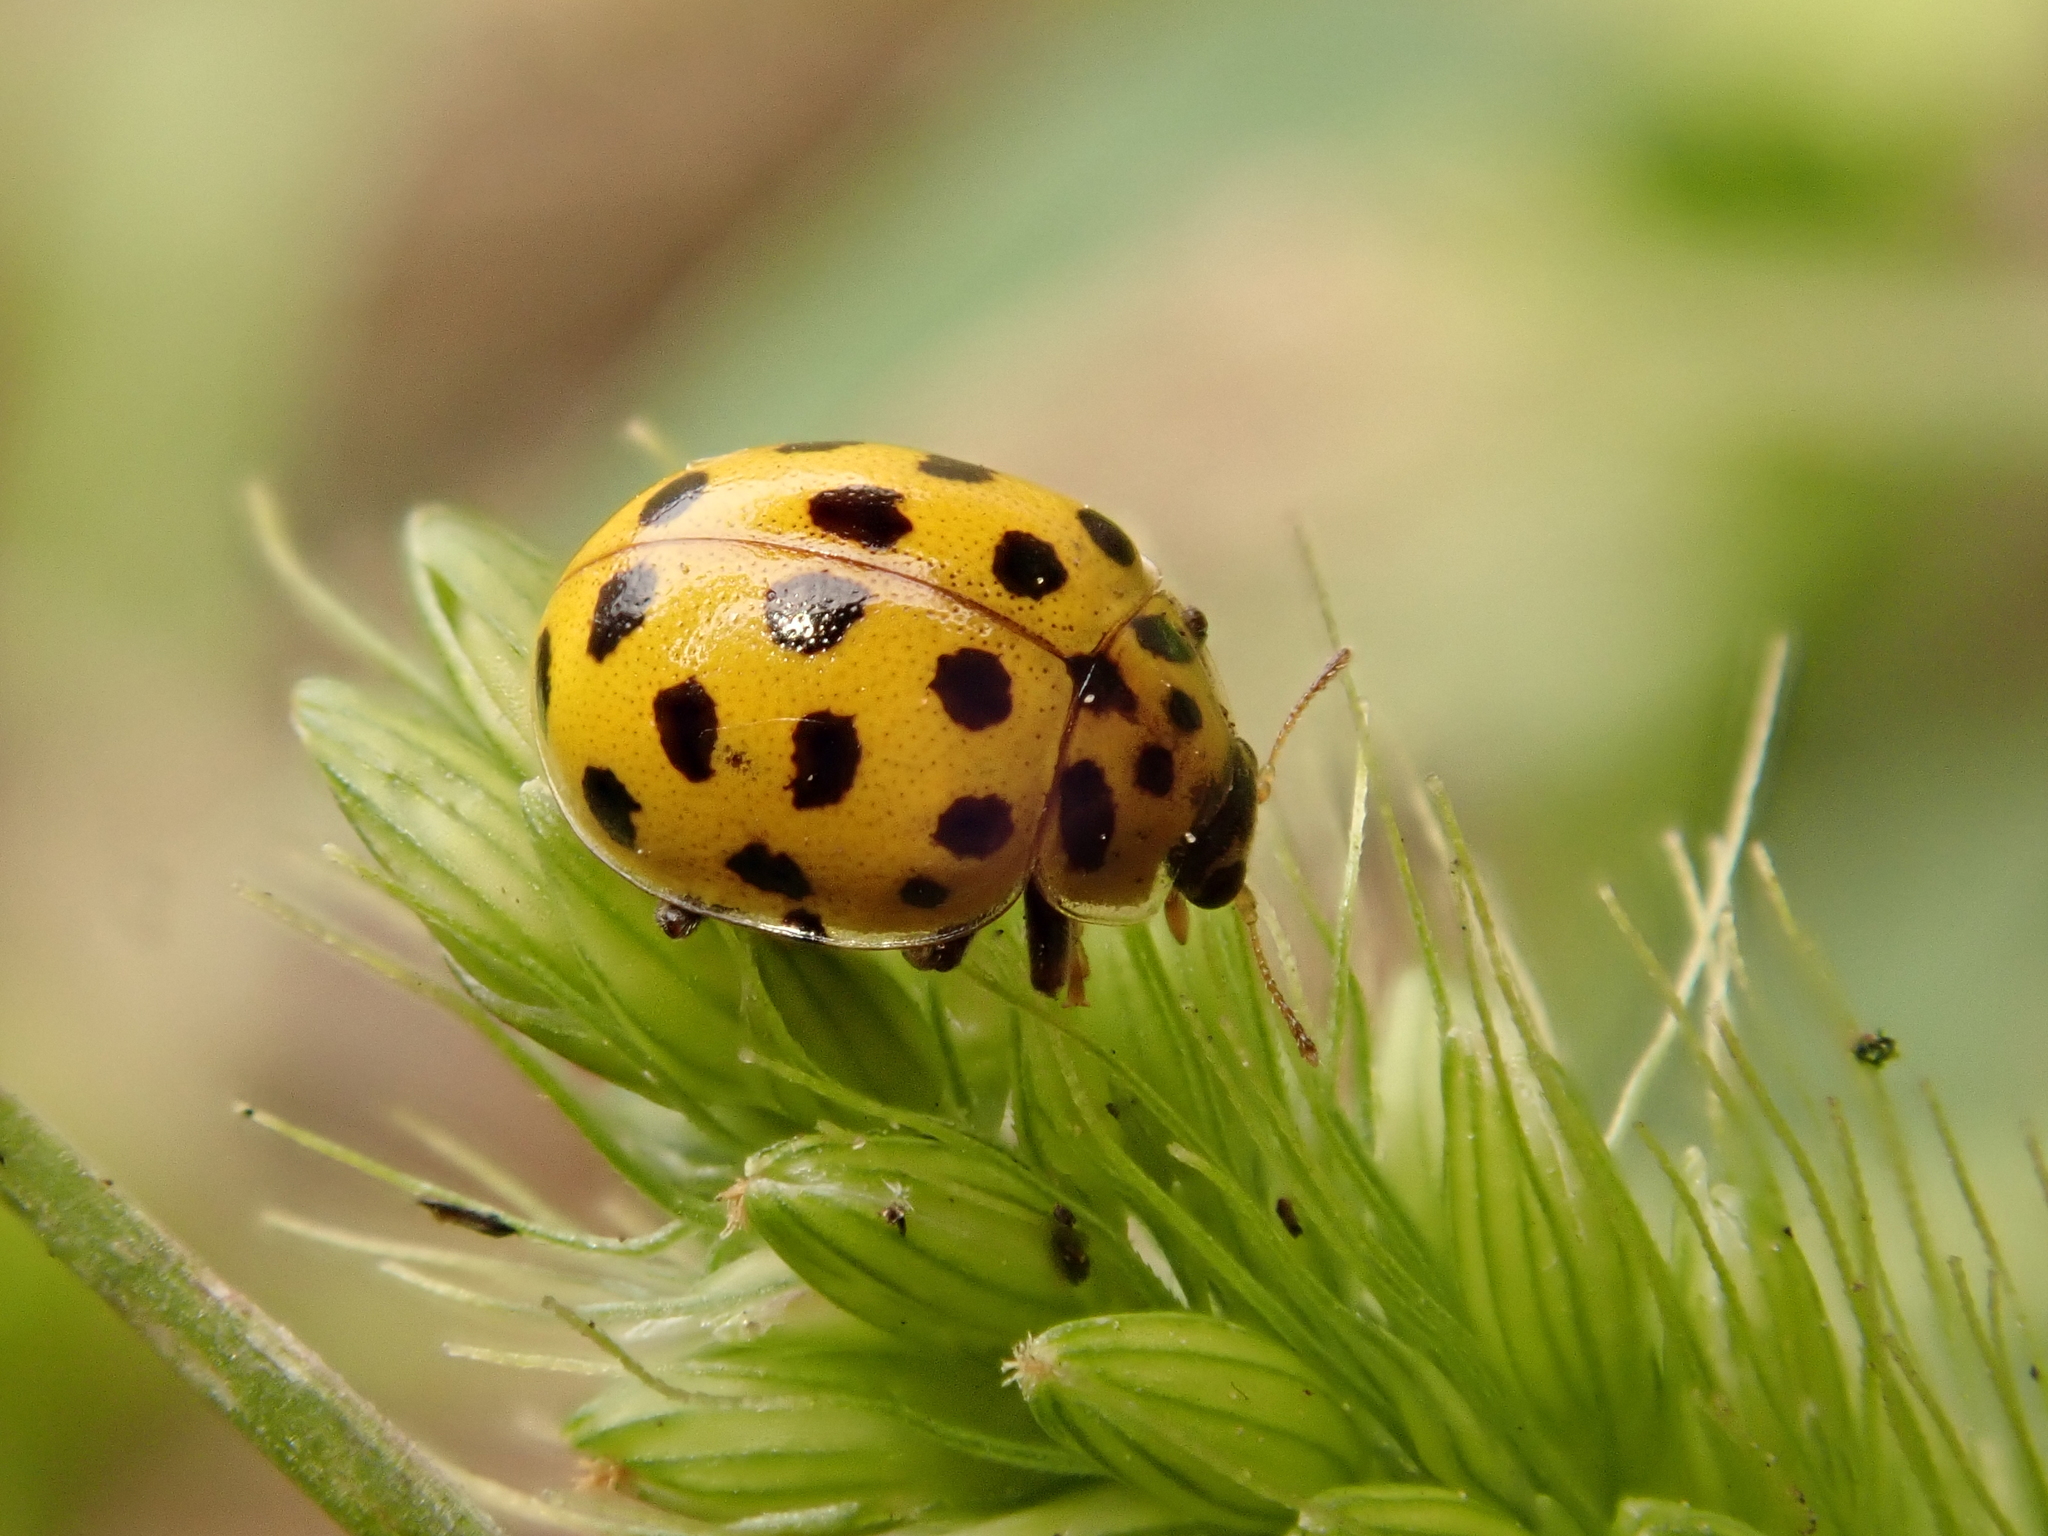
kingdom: Animalia
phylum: Arthropoda
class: Insecta
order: Coleoptera
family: Coccinellidae
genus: Psyllobora
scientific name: Psyllobora vigintiduopunctata
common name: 22-spot ladybird
